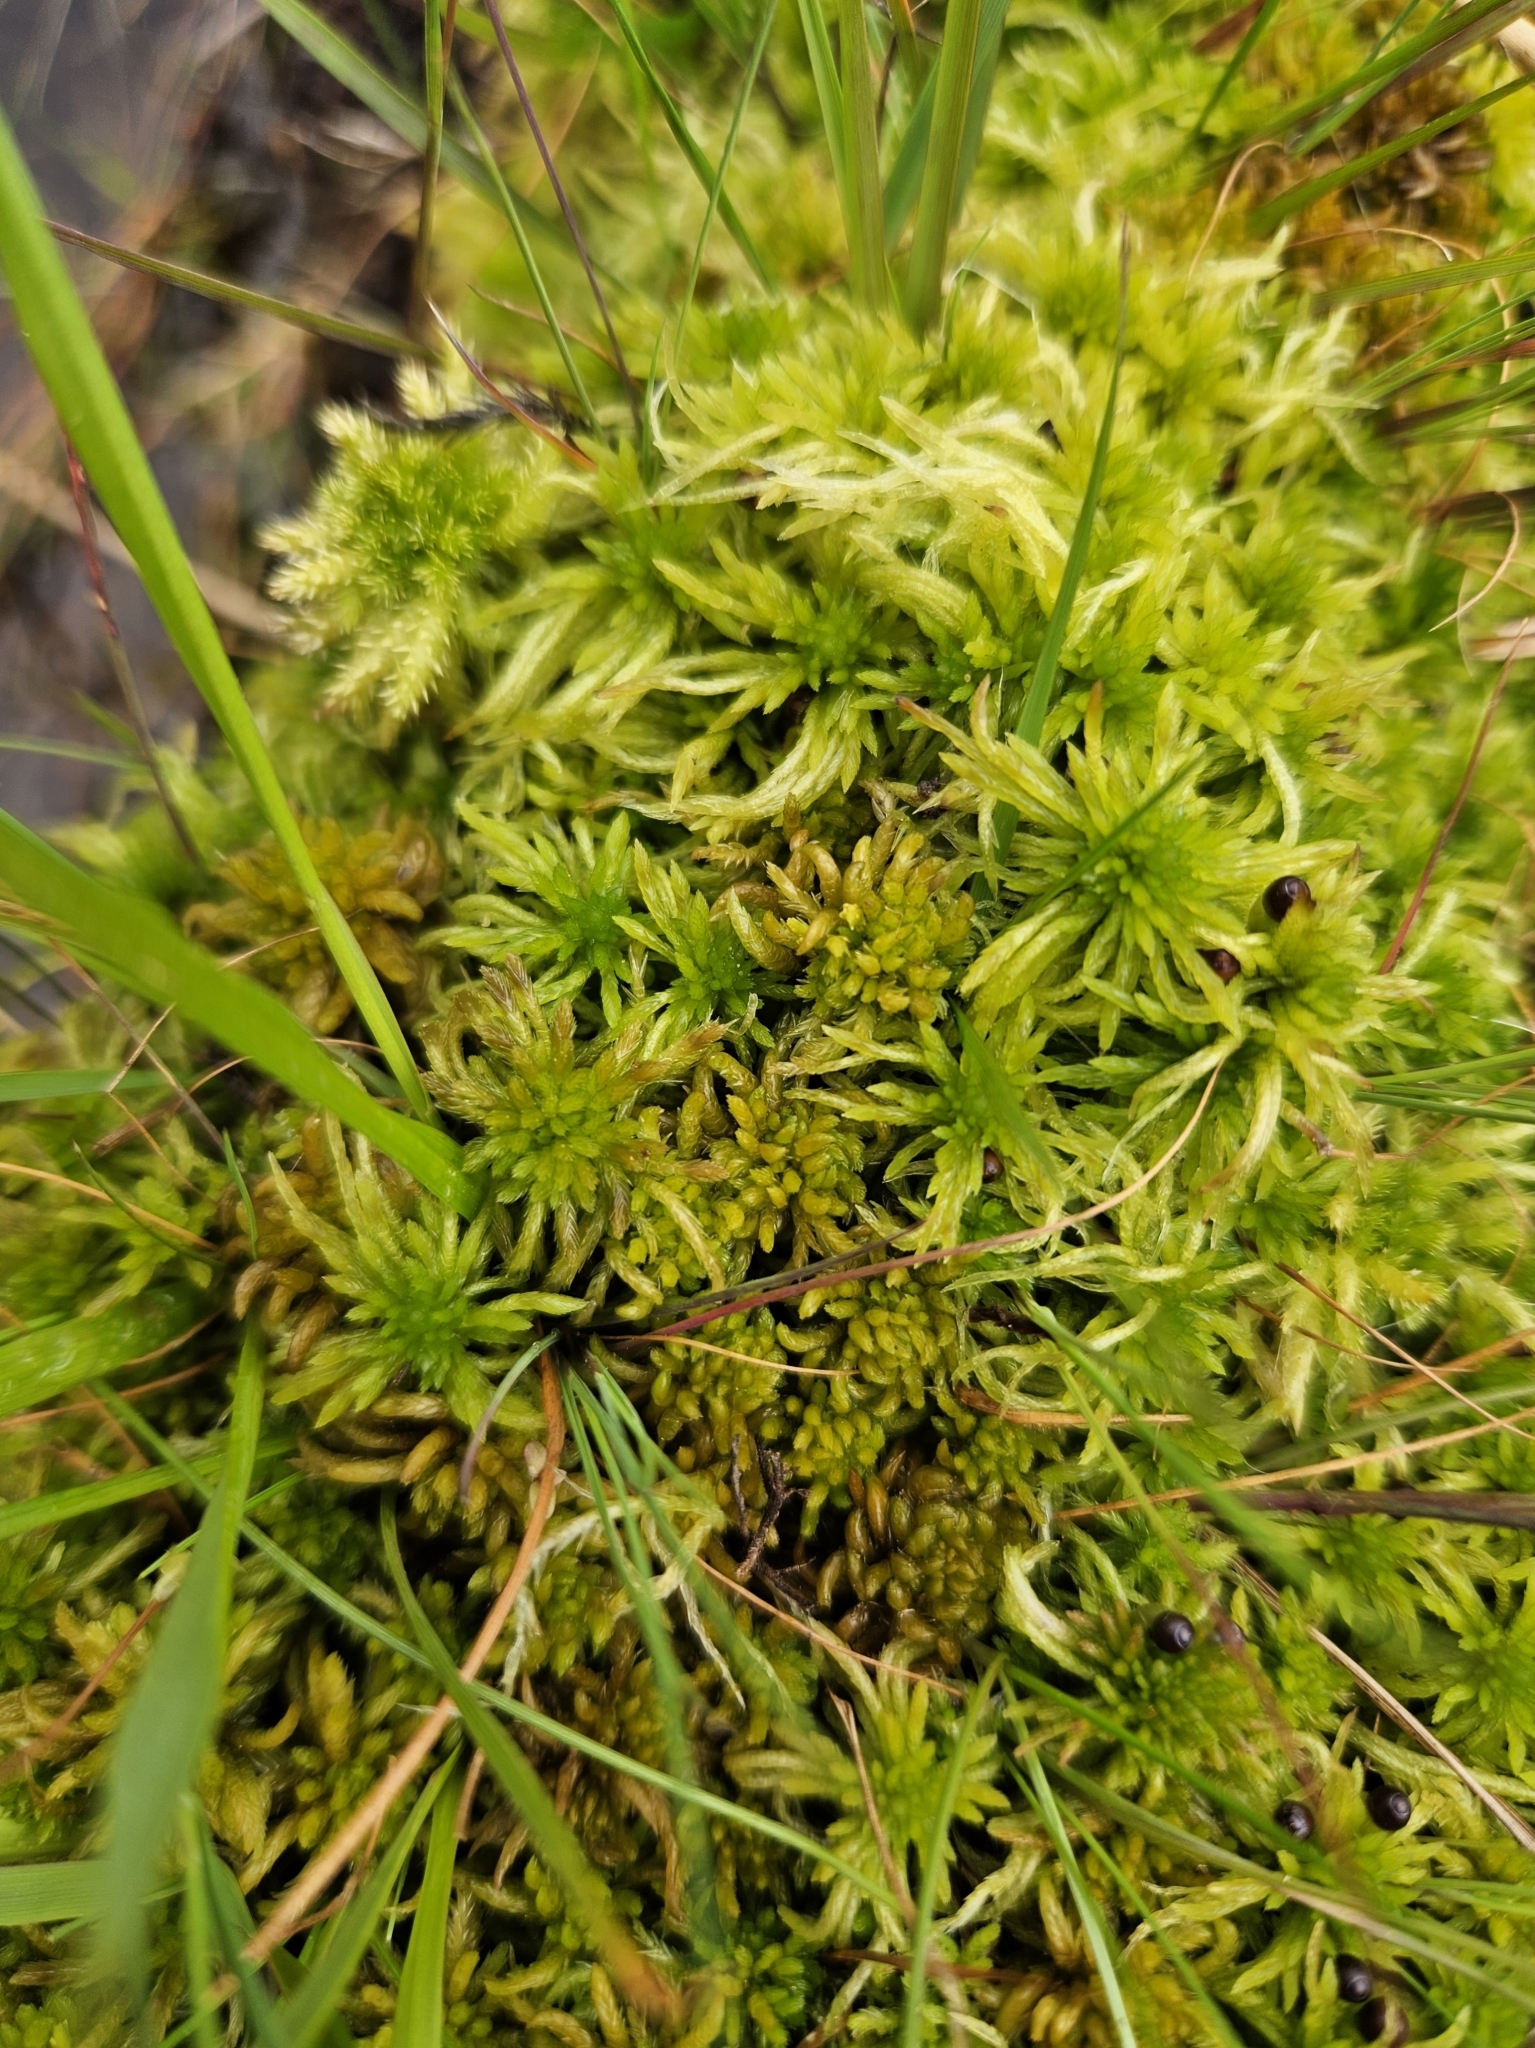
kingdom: Plantae
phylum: Bryophyta
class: Sphagnopsida
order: Sphagnales
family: Sphagnaceae
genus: Sphagnum
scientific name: Sphagnum inundatum
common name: Lesser cow-horn bog-moss
